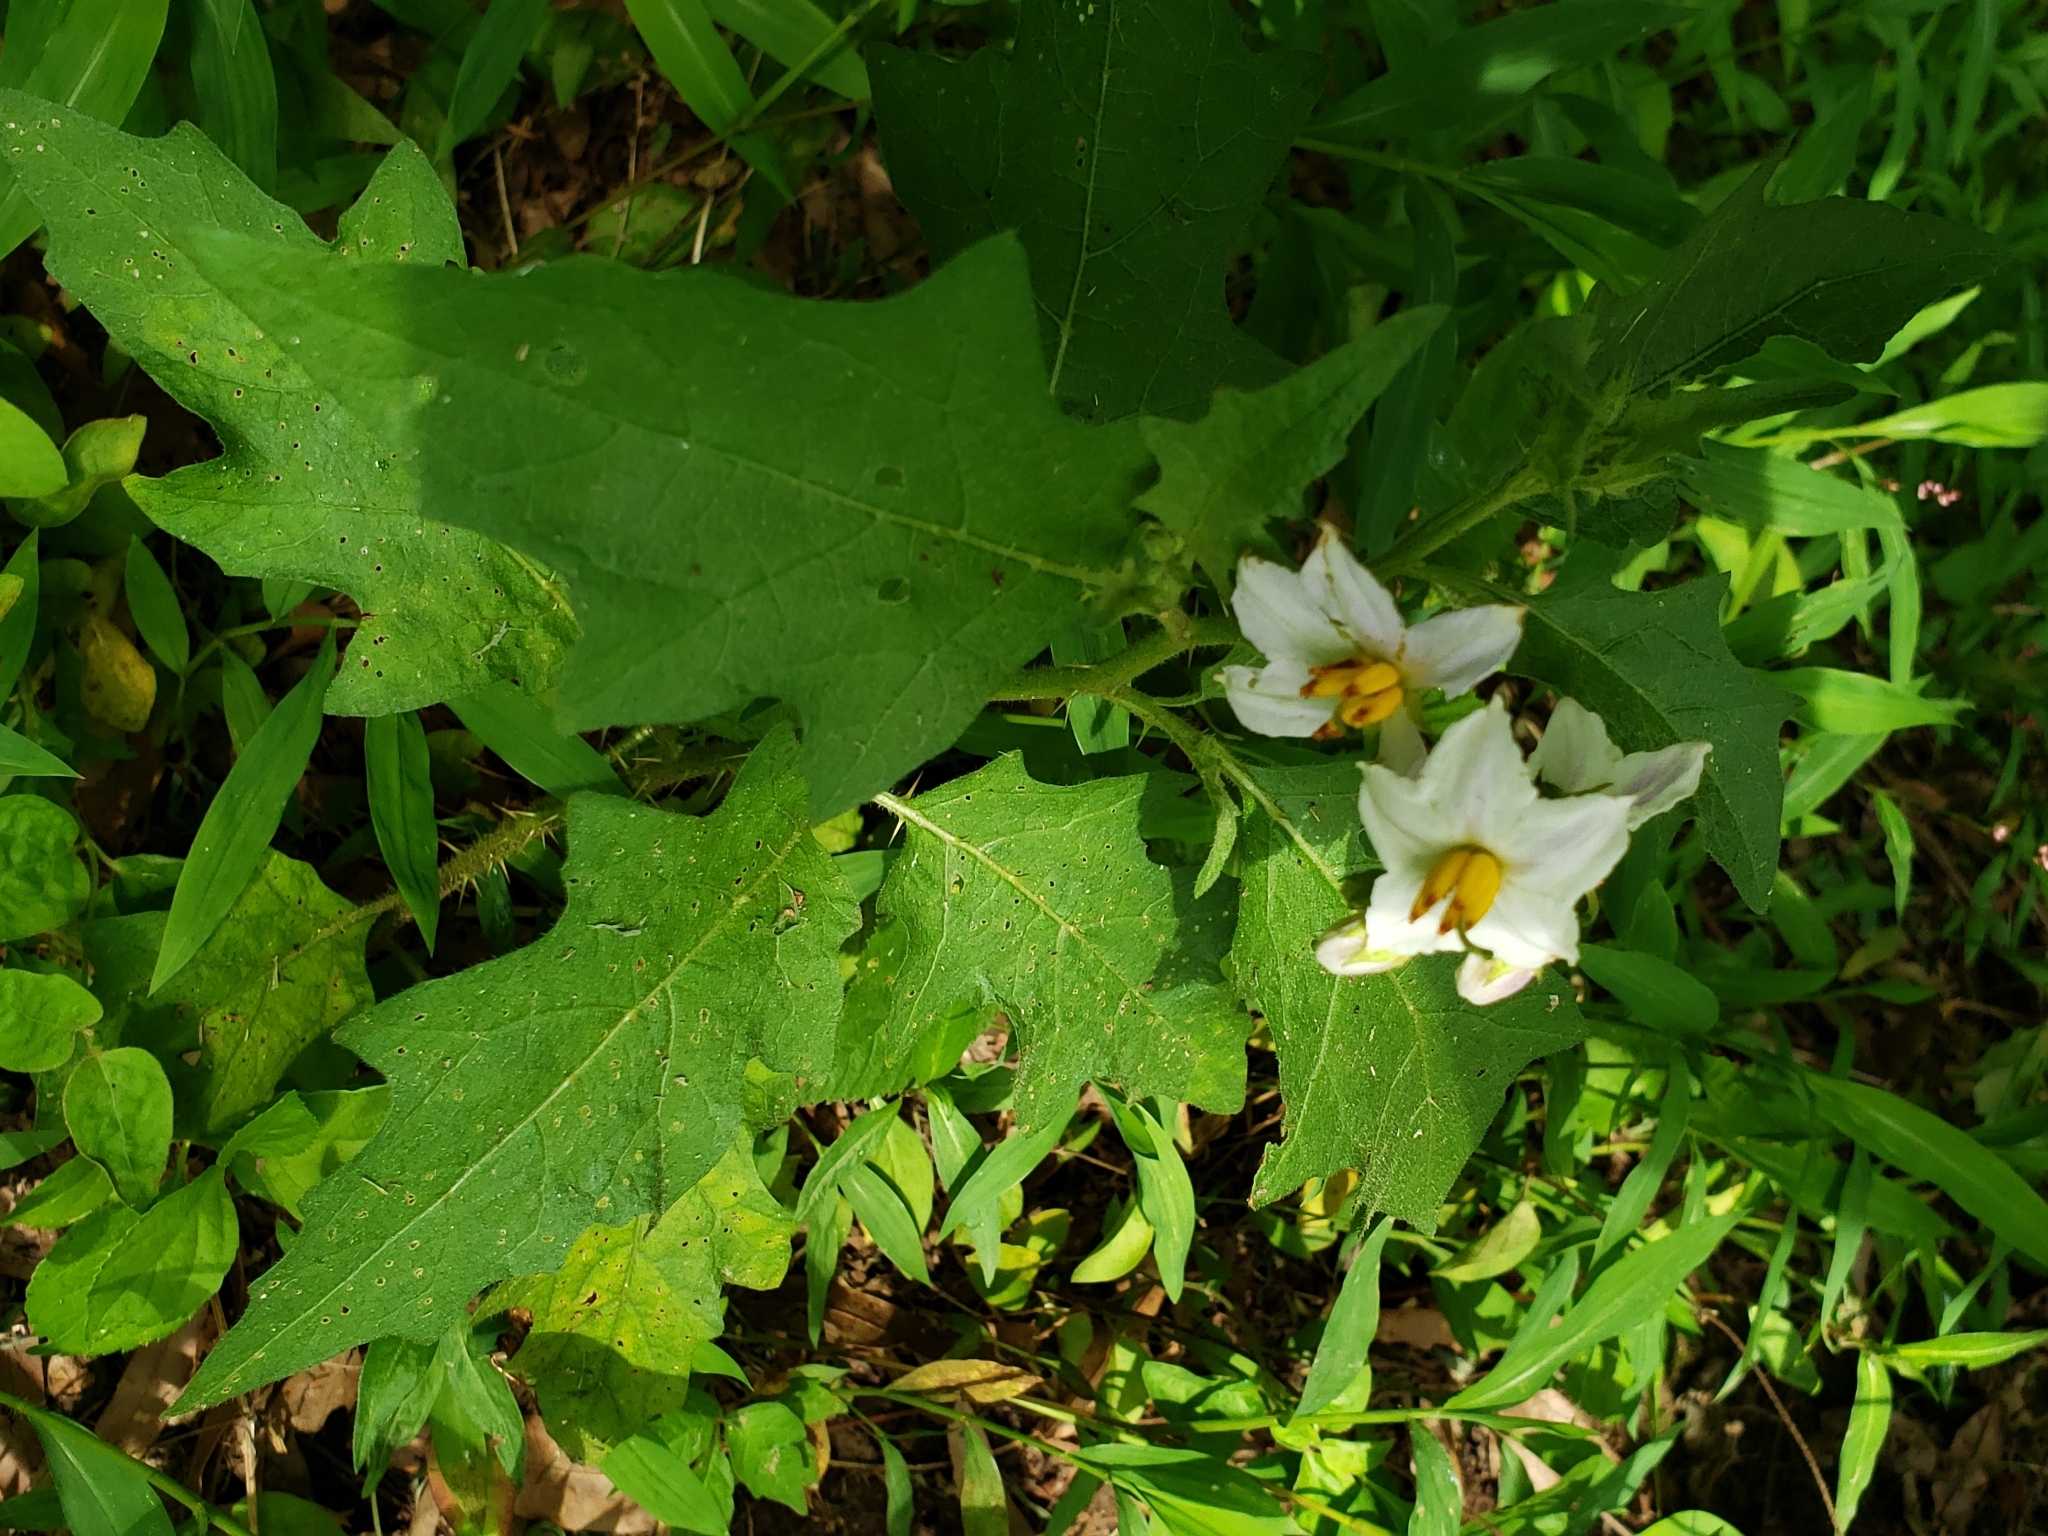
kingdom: Plantae
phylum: Tracheophyta
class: Magnoliopsida
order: Solanales
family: Solanaceae
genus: Solanum
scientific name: Solanum carolinense
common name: Horse-nettle
